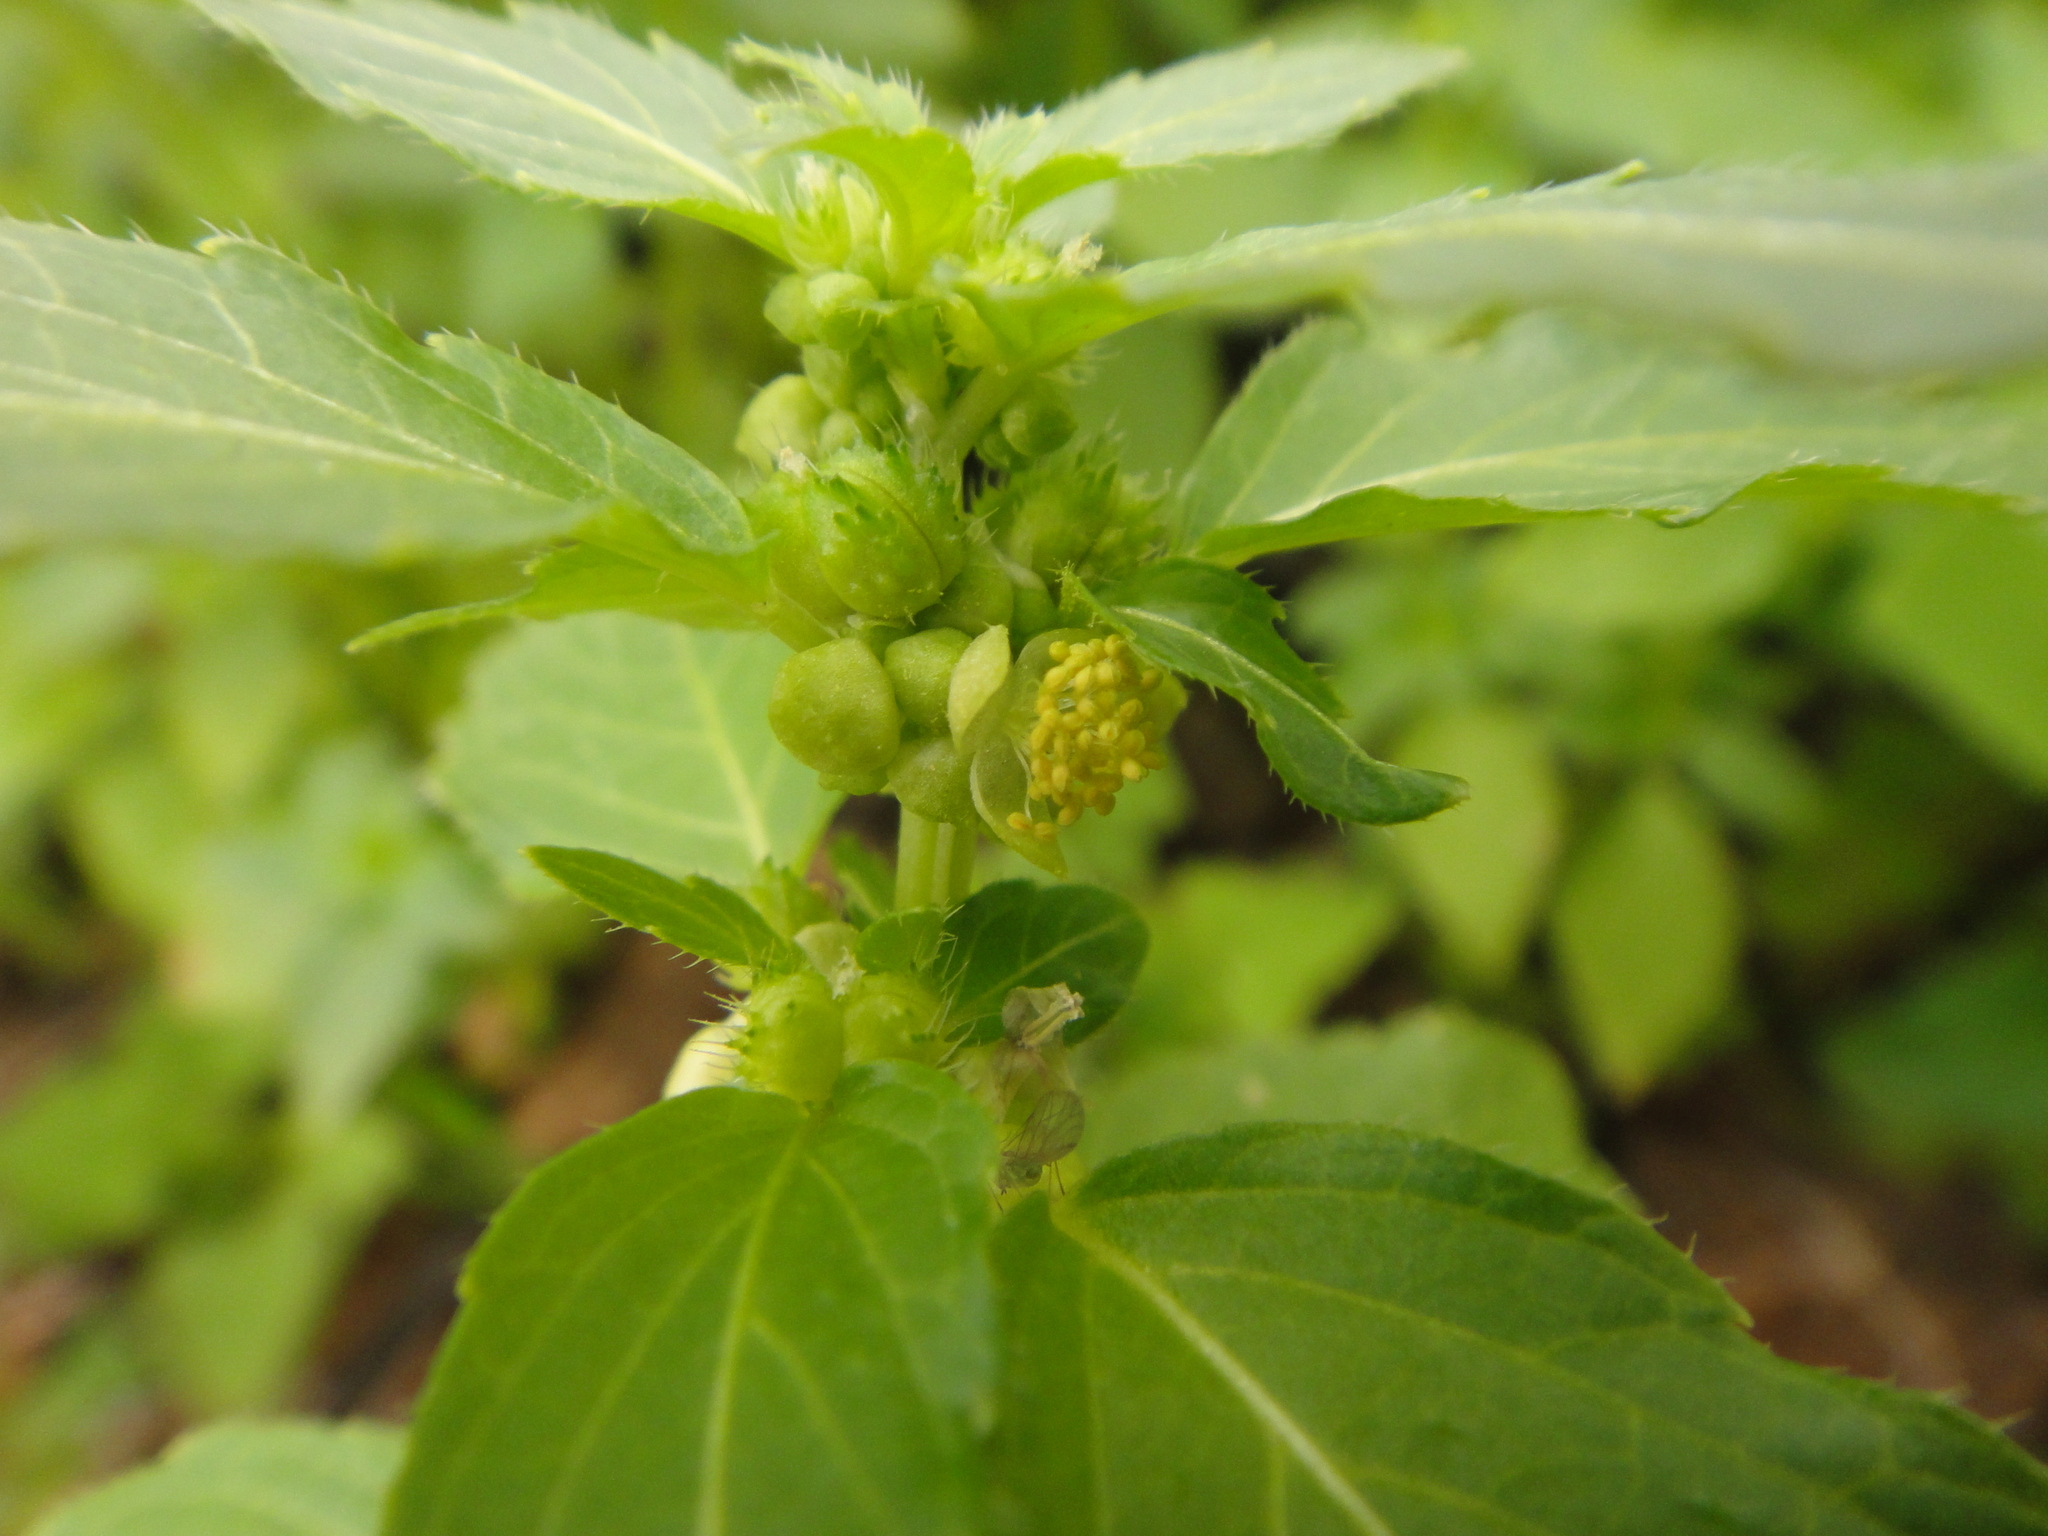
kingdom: Plantae
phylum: Tracheophyta
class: Magnoliopsida
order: Malpighiales
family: Euphorbiaceae
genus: Mercurialis
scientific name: Mercurialis annua
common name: Annual mercury
